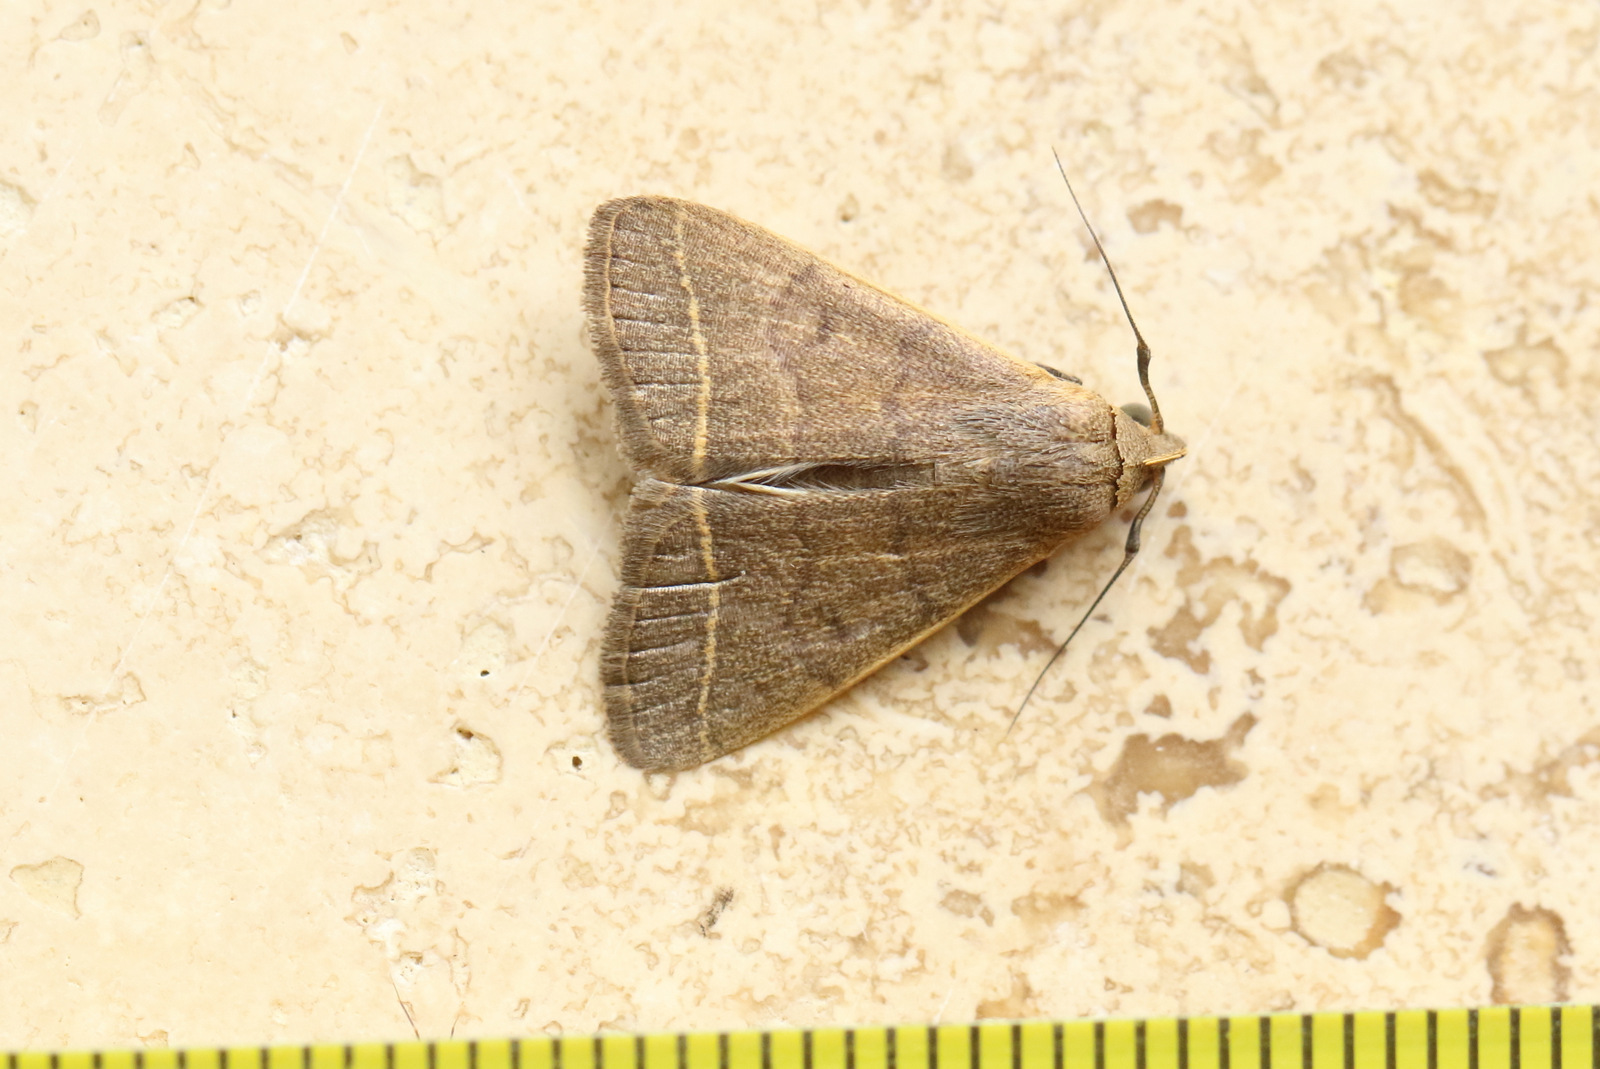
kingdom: Animalia
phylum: Arthropoda
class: Insecta
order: Lepidoptera
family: Erebidae
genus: Simplicia
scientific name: Simplicia cornicalis
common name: Tiki hut litter moth
